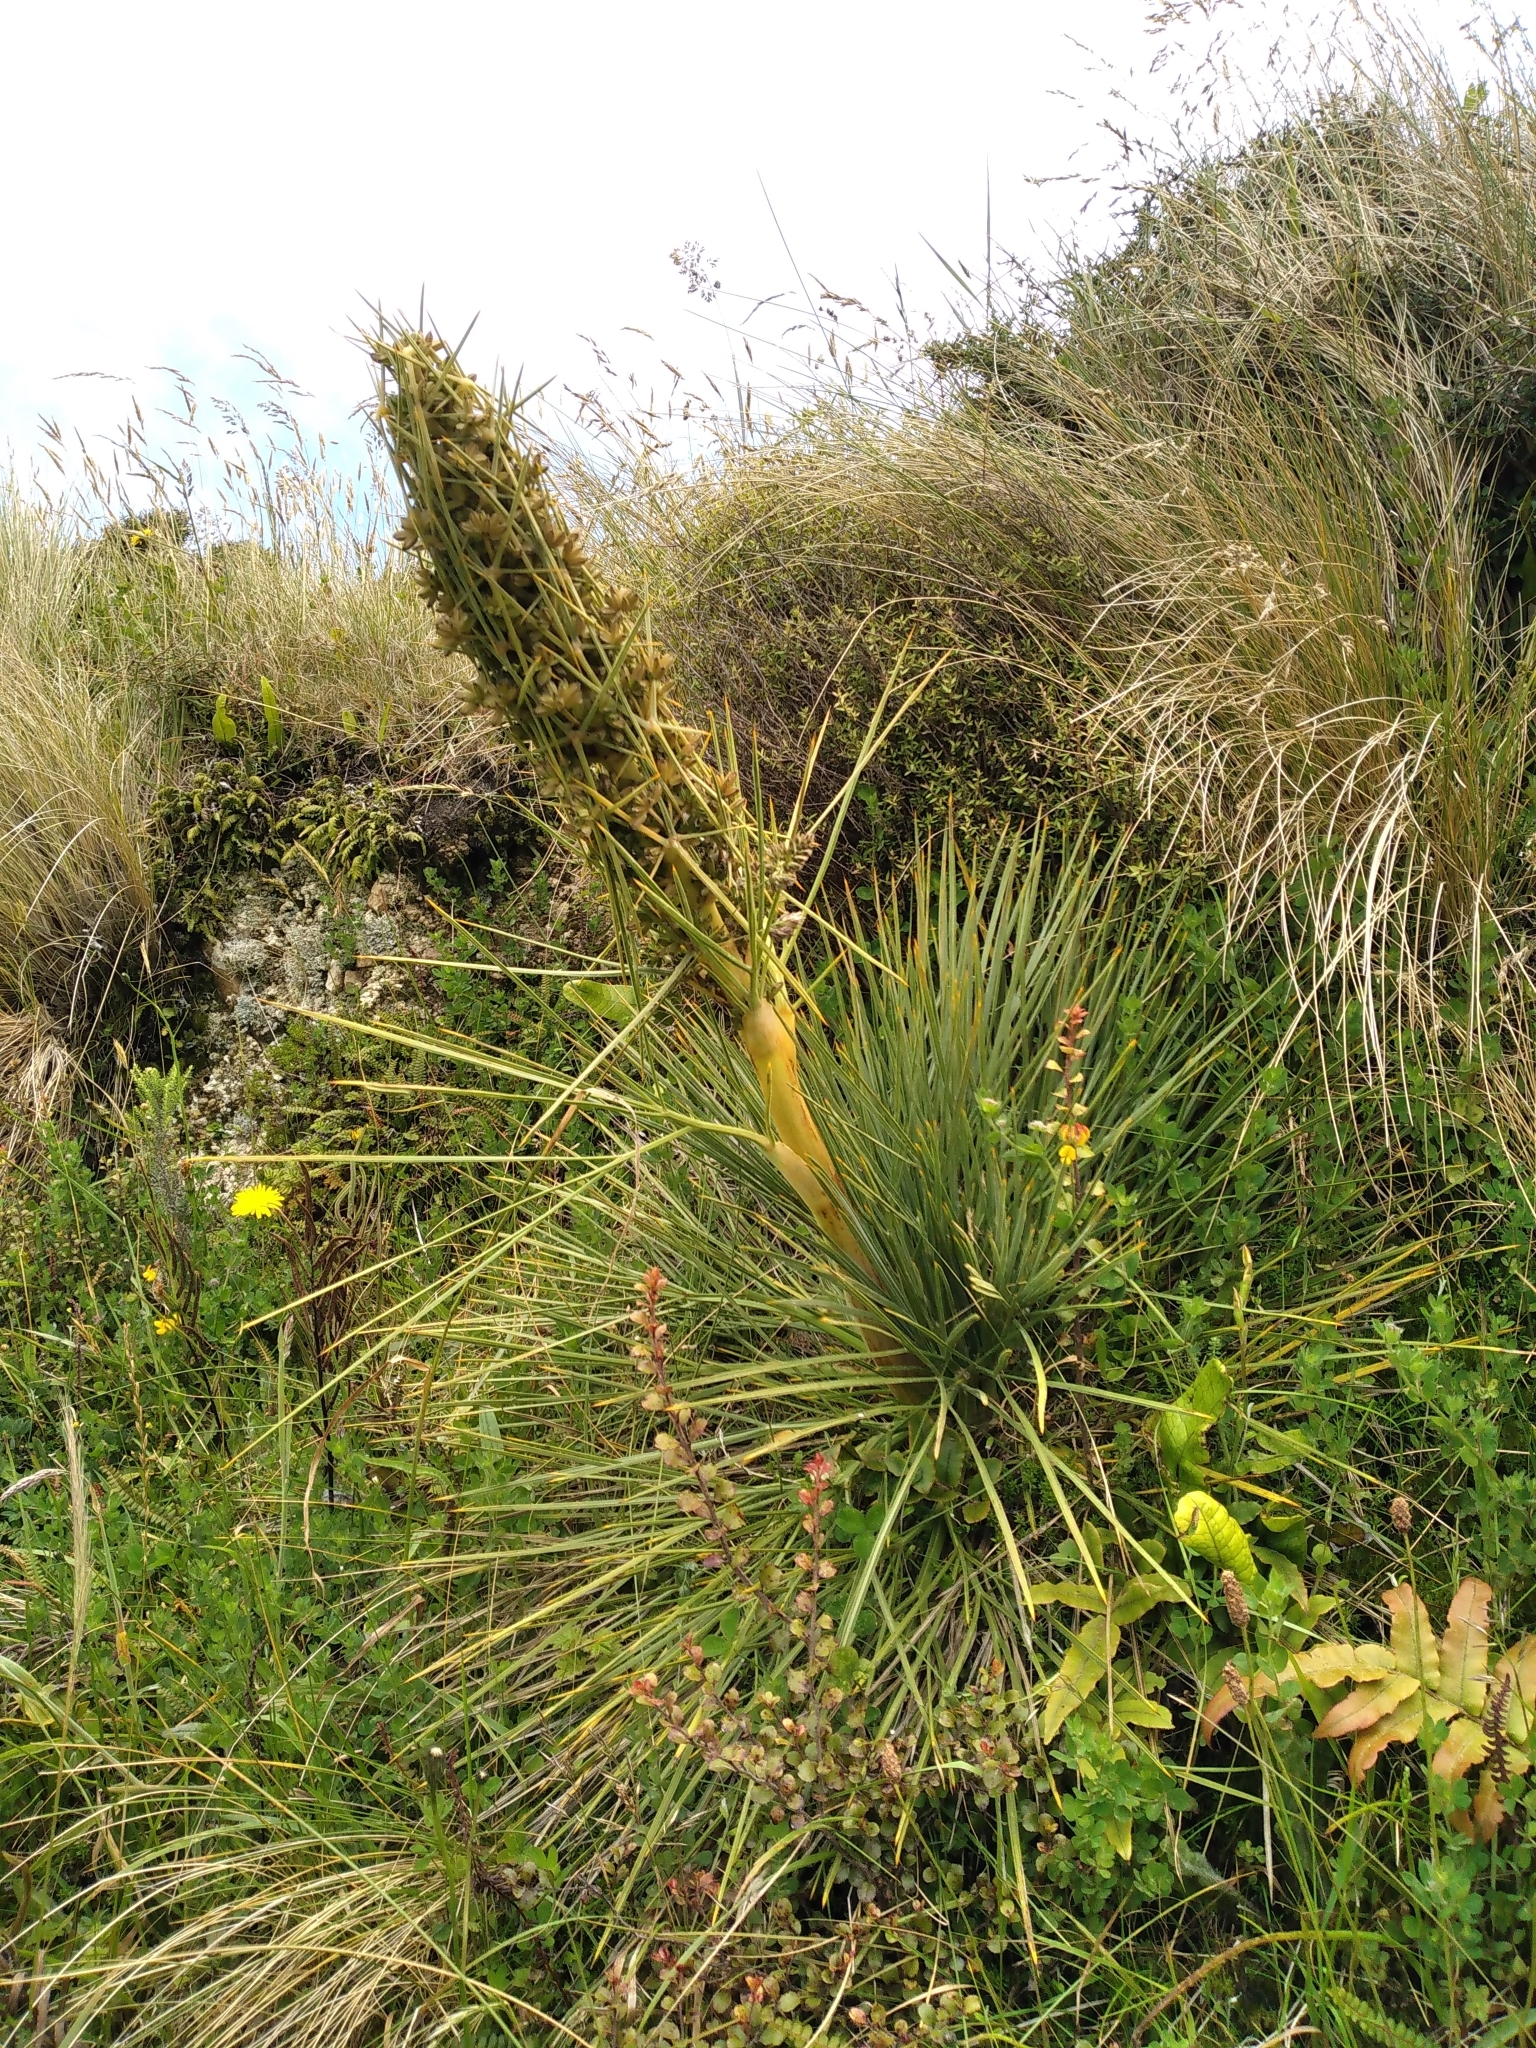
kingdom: Plantae
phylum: Tracheophyta
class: Magnoliopsida
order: Apiales
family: Apiaceae
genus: Aciphylla
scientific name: Aciphylla squarrosa
